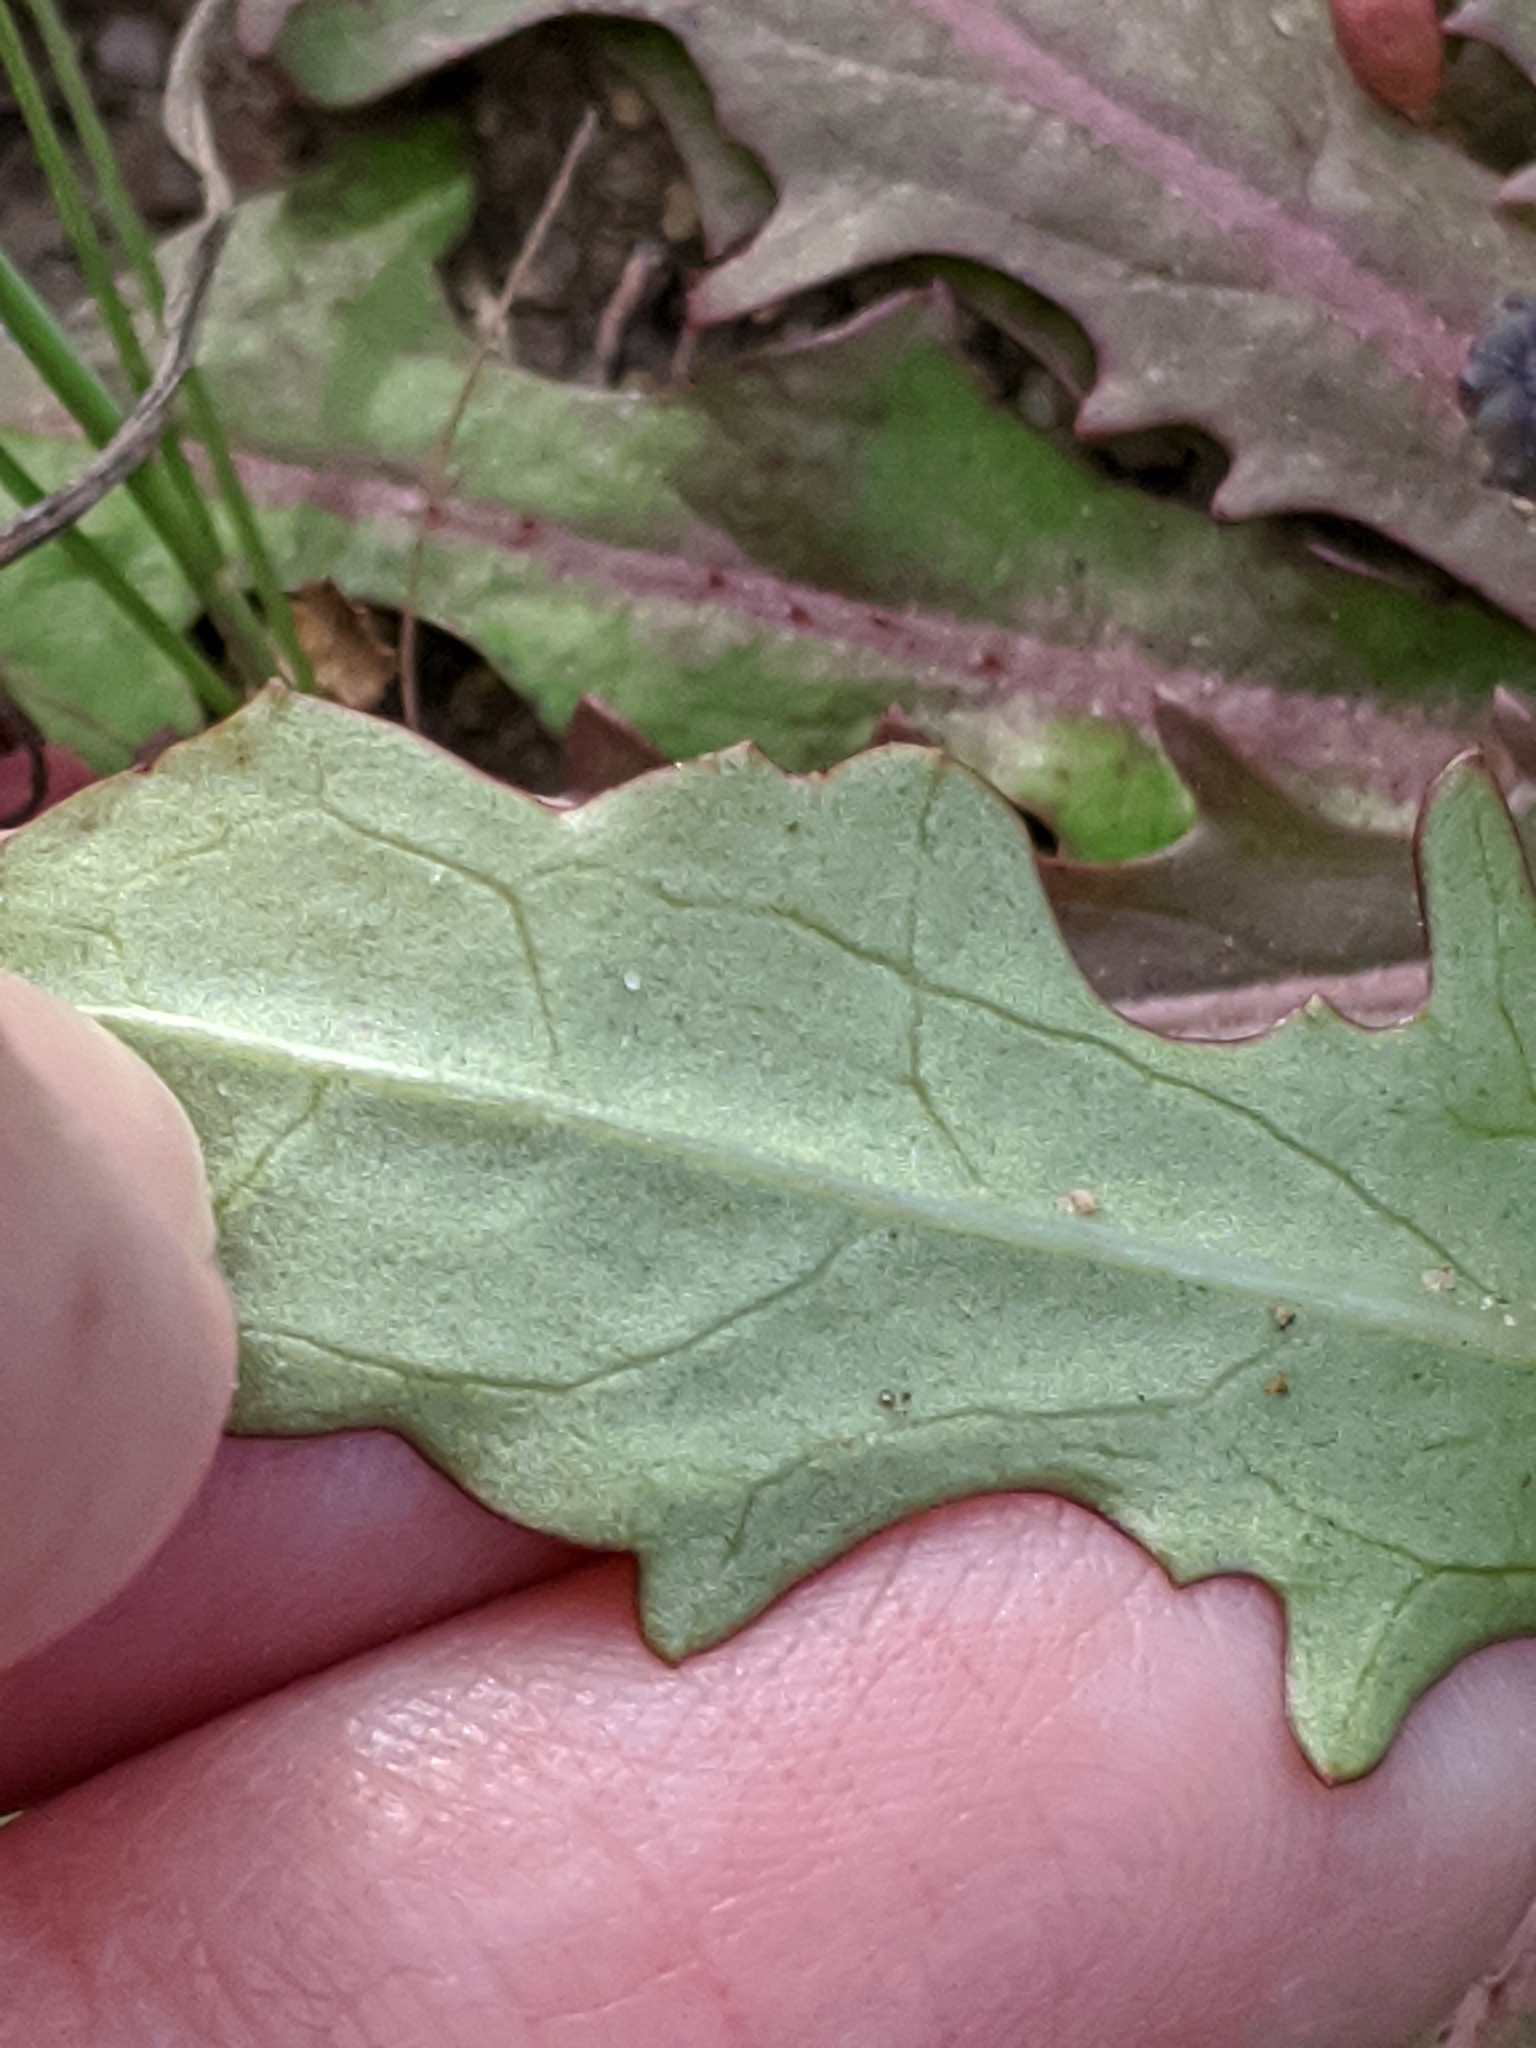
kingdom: Plantae
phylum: Tracheophyta
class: Magnoliopsida
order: Asterales
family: Asteraceae
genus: Hypochaeris
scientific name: Hypochaeris glabra
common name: Smooth catsear
